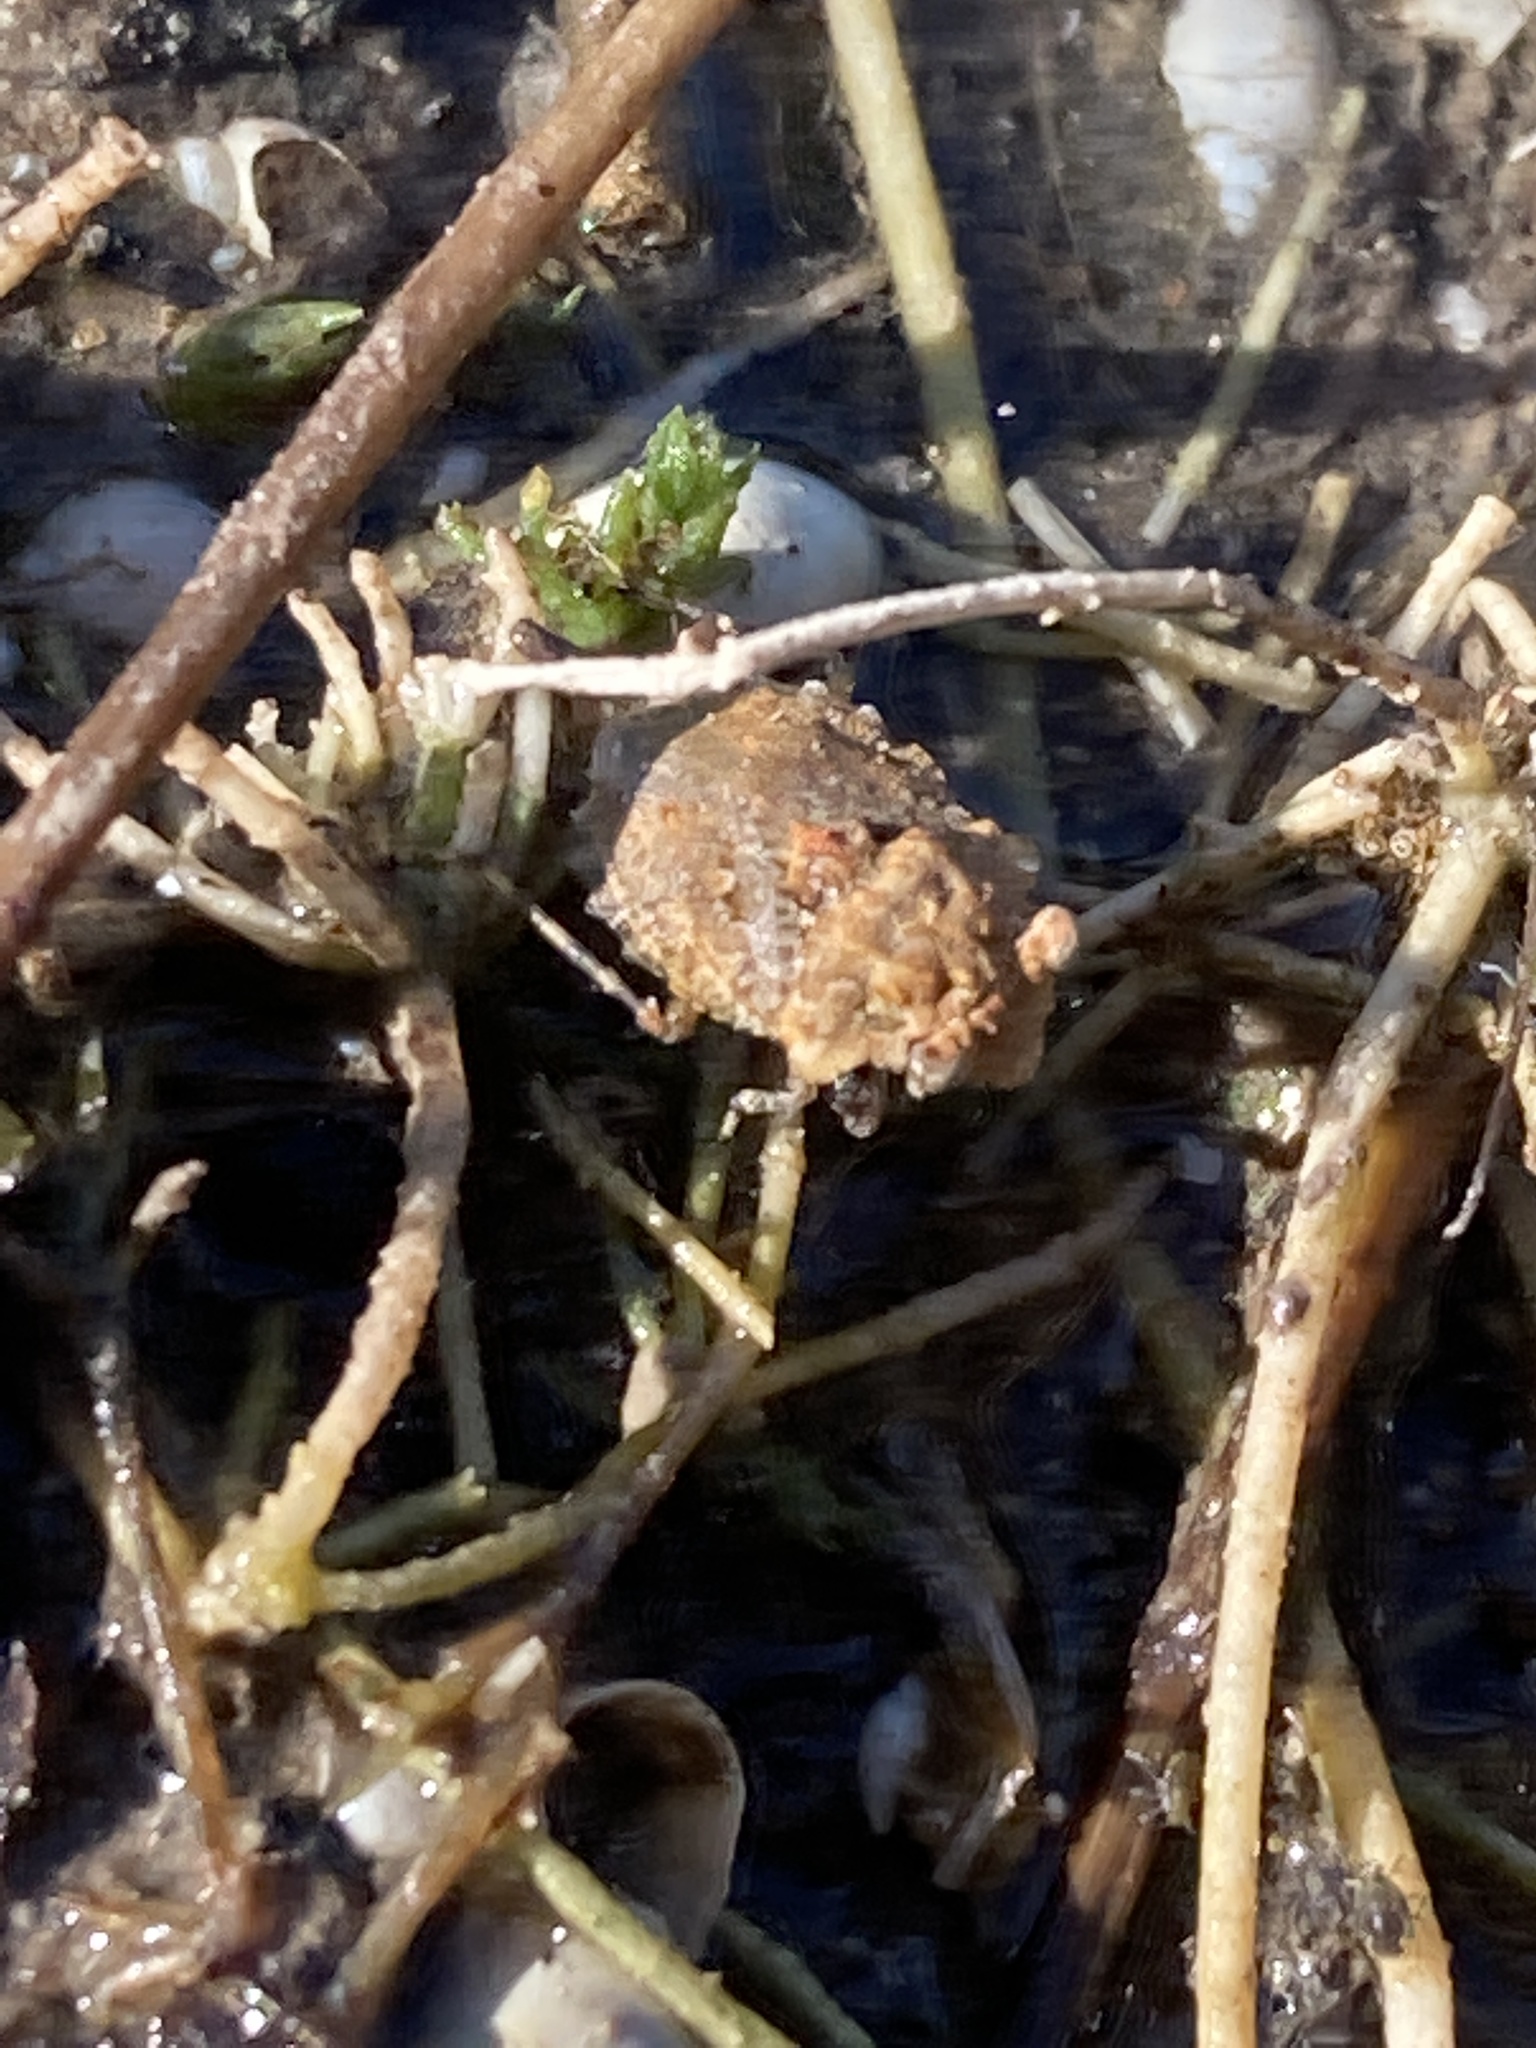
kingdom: Animalia
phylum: Arthropoda
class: Insecta
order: Hemiptera
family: Gelastocoridae
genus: Gelastocoris
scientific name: Gelastocoris oculatus
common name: Toad bug
